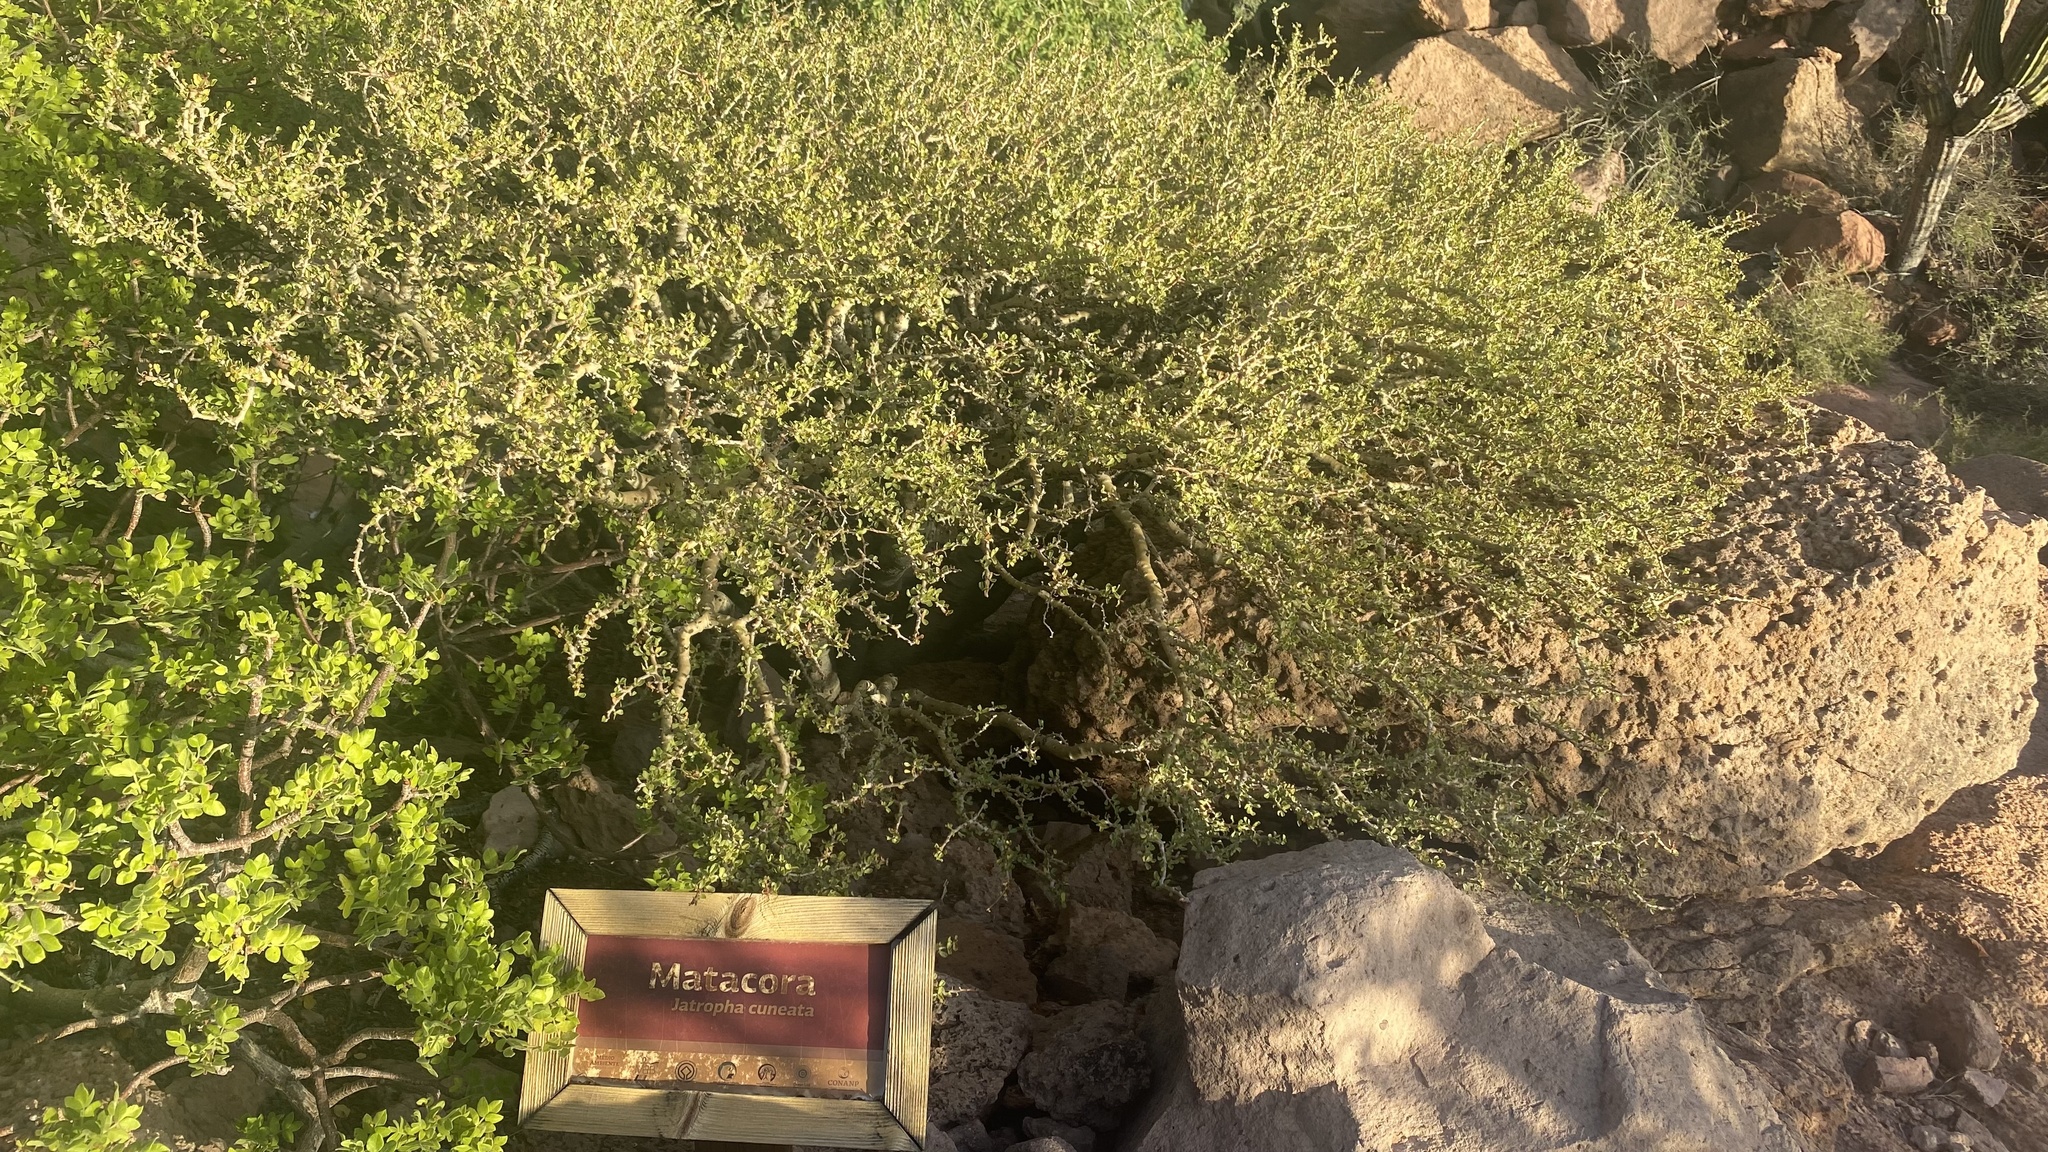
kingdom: Plantae
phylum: Tracheophyta
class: Magnoliopsida
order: Malpighiales
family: Euphorbiaceae
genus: Jatropha
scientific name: Jatropha cuneata
